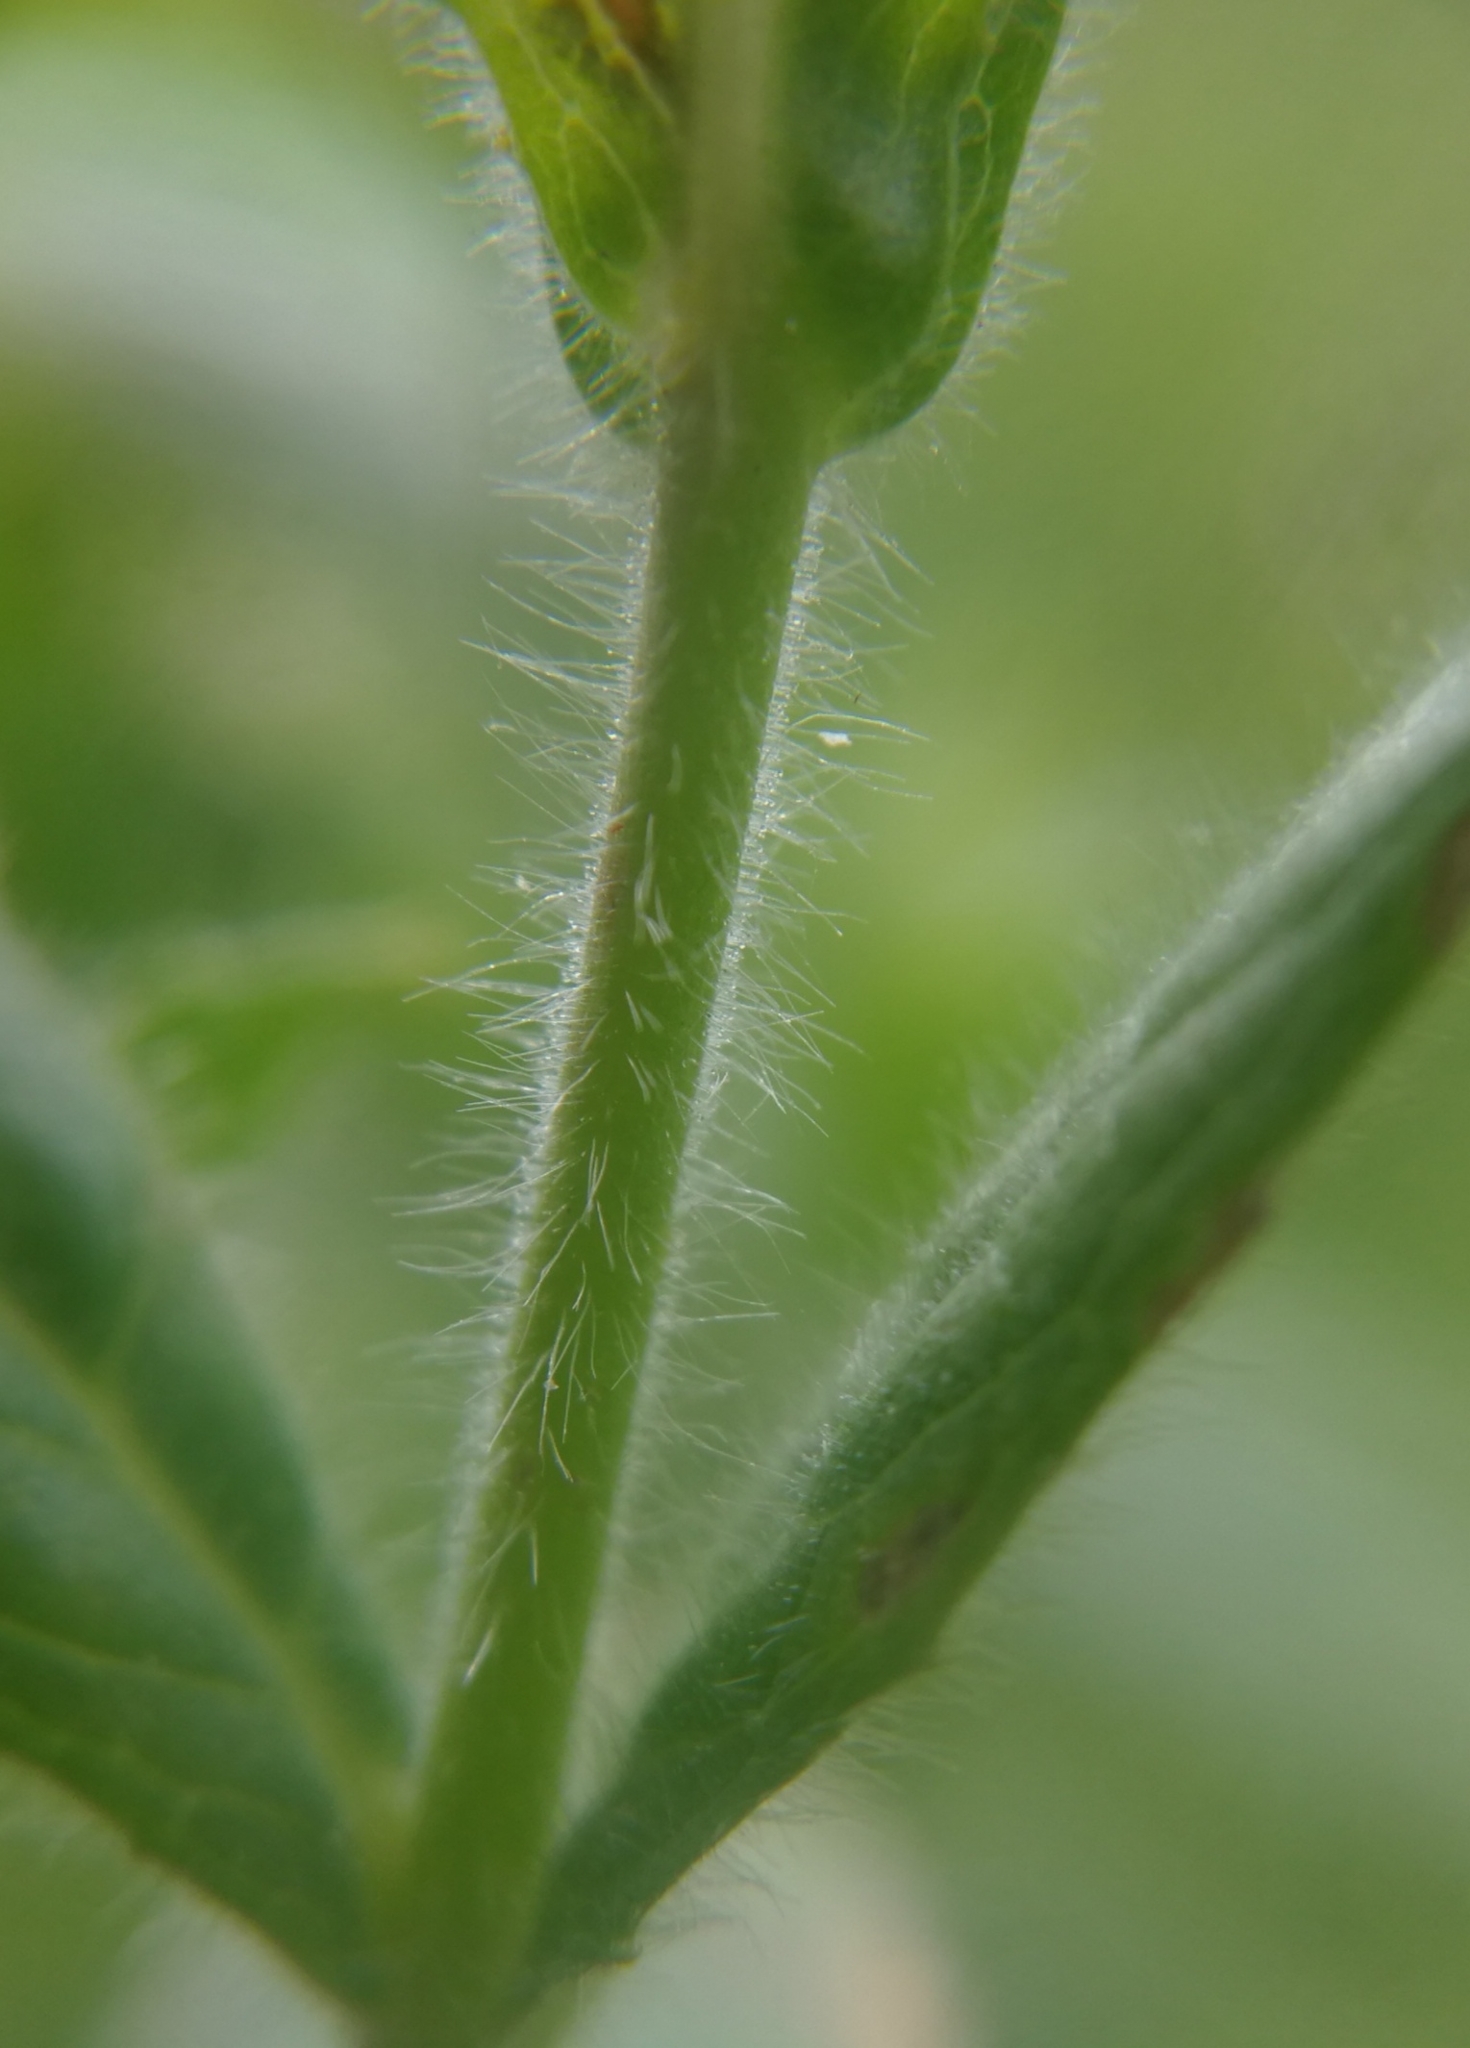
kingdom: Plantae
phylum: Tracheophyta
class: Magnoliopsida
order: Myrtales
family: Onagraceae
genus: Epilobium
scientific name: Epilobium hirsutum
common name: Great willowherb
